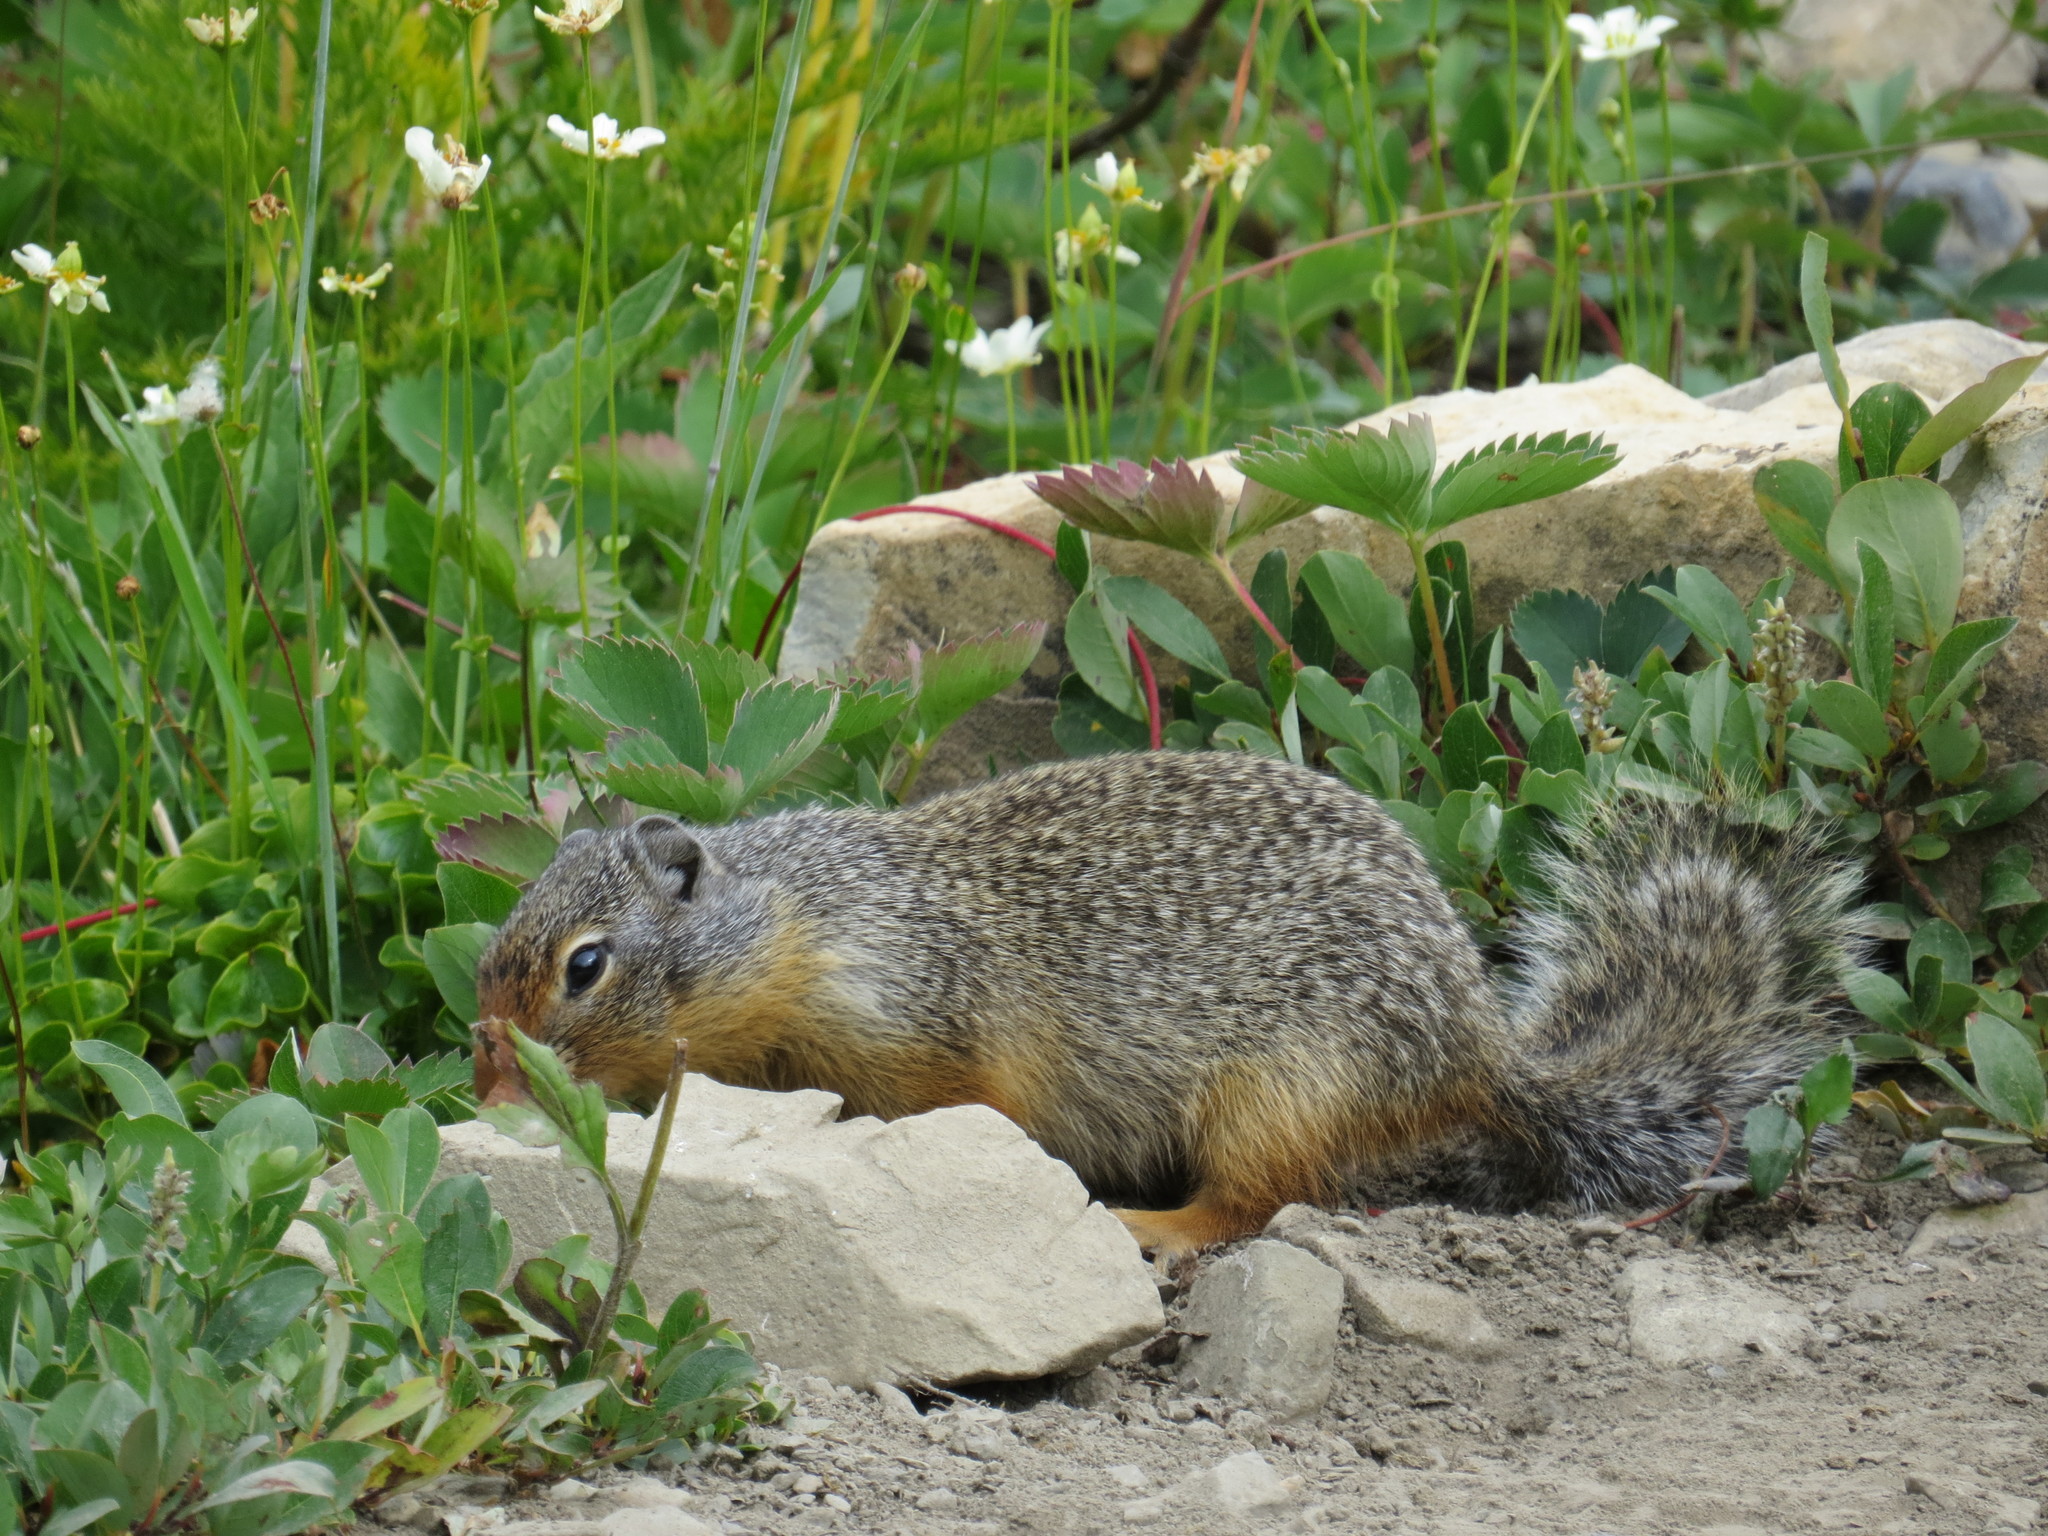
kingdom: Animalia
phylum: Chordata
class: Mammalia
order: Rodentia
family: Sciuridae
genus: Urocitellus
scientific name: Urocitellus columbianus
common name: Columbian ground squirrel
